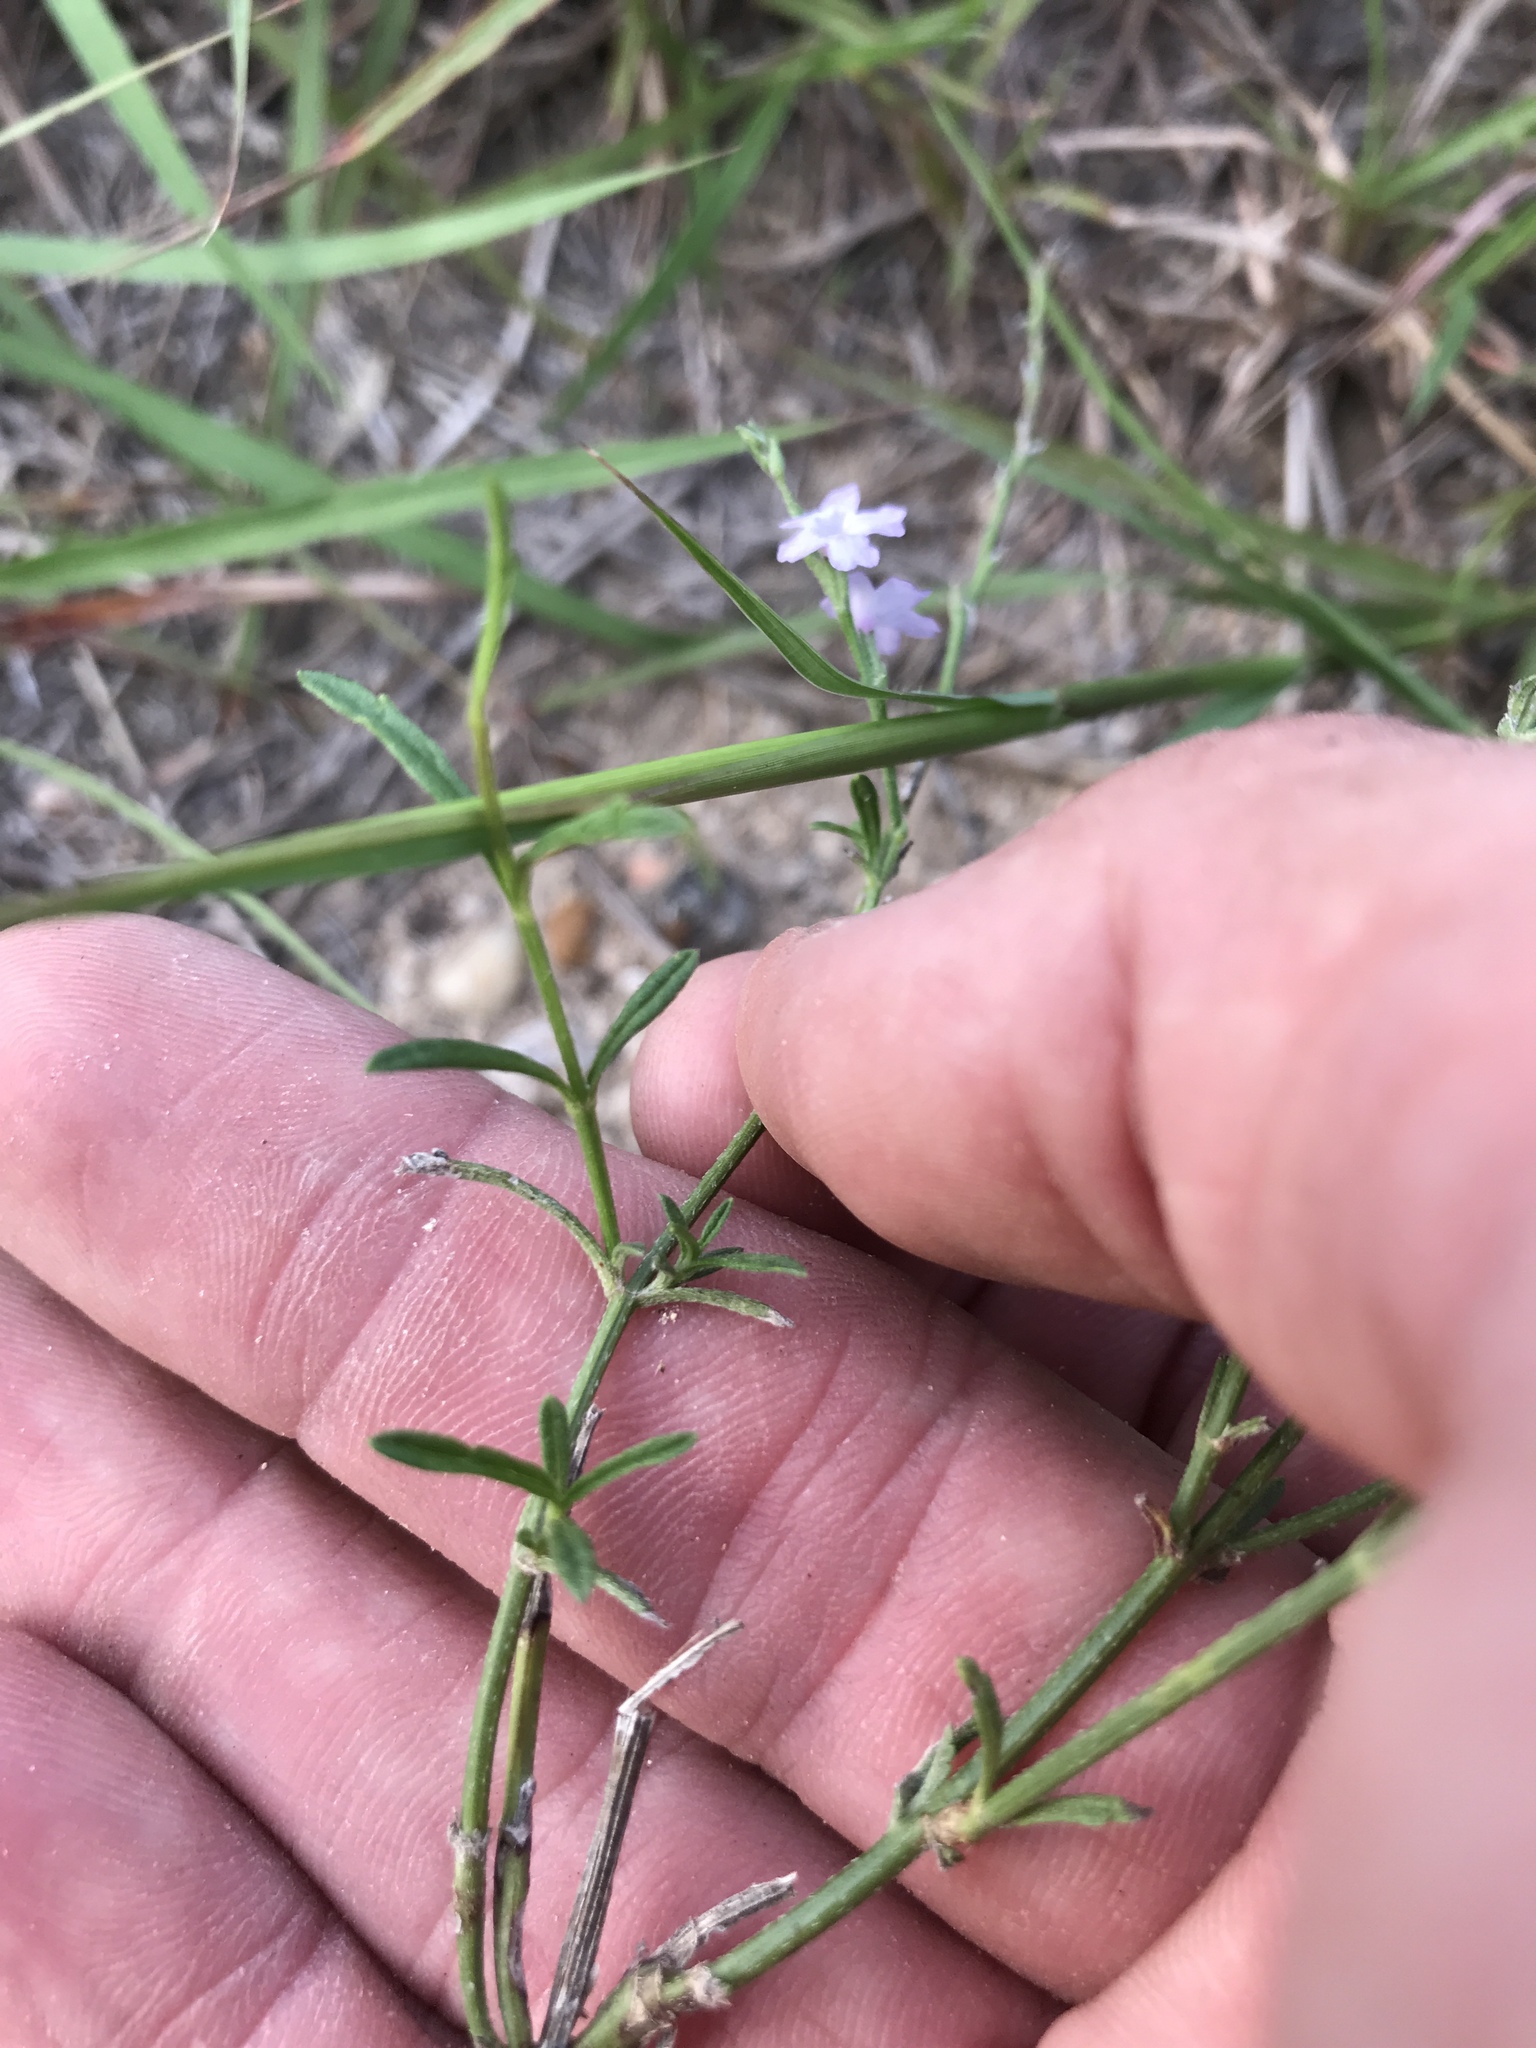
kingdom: Plantae
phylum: Tracheophyta
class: Magnoliopsida
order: Lamiales
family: Verbenaceae
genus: Verbena
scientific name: Verbena halei
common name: Texas vervain
